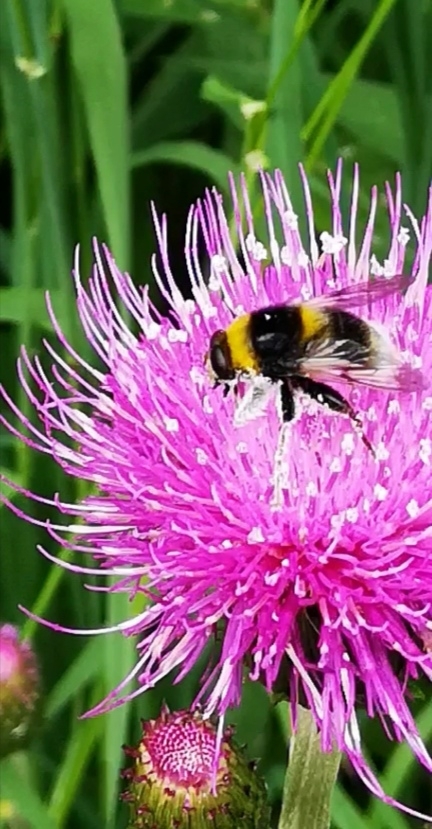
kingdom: Animalia
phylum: Arthropoda
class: Insecta
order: Diptera
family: Syrphidae
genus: Sericomyia
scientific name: Sericomyia bombiformis
